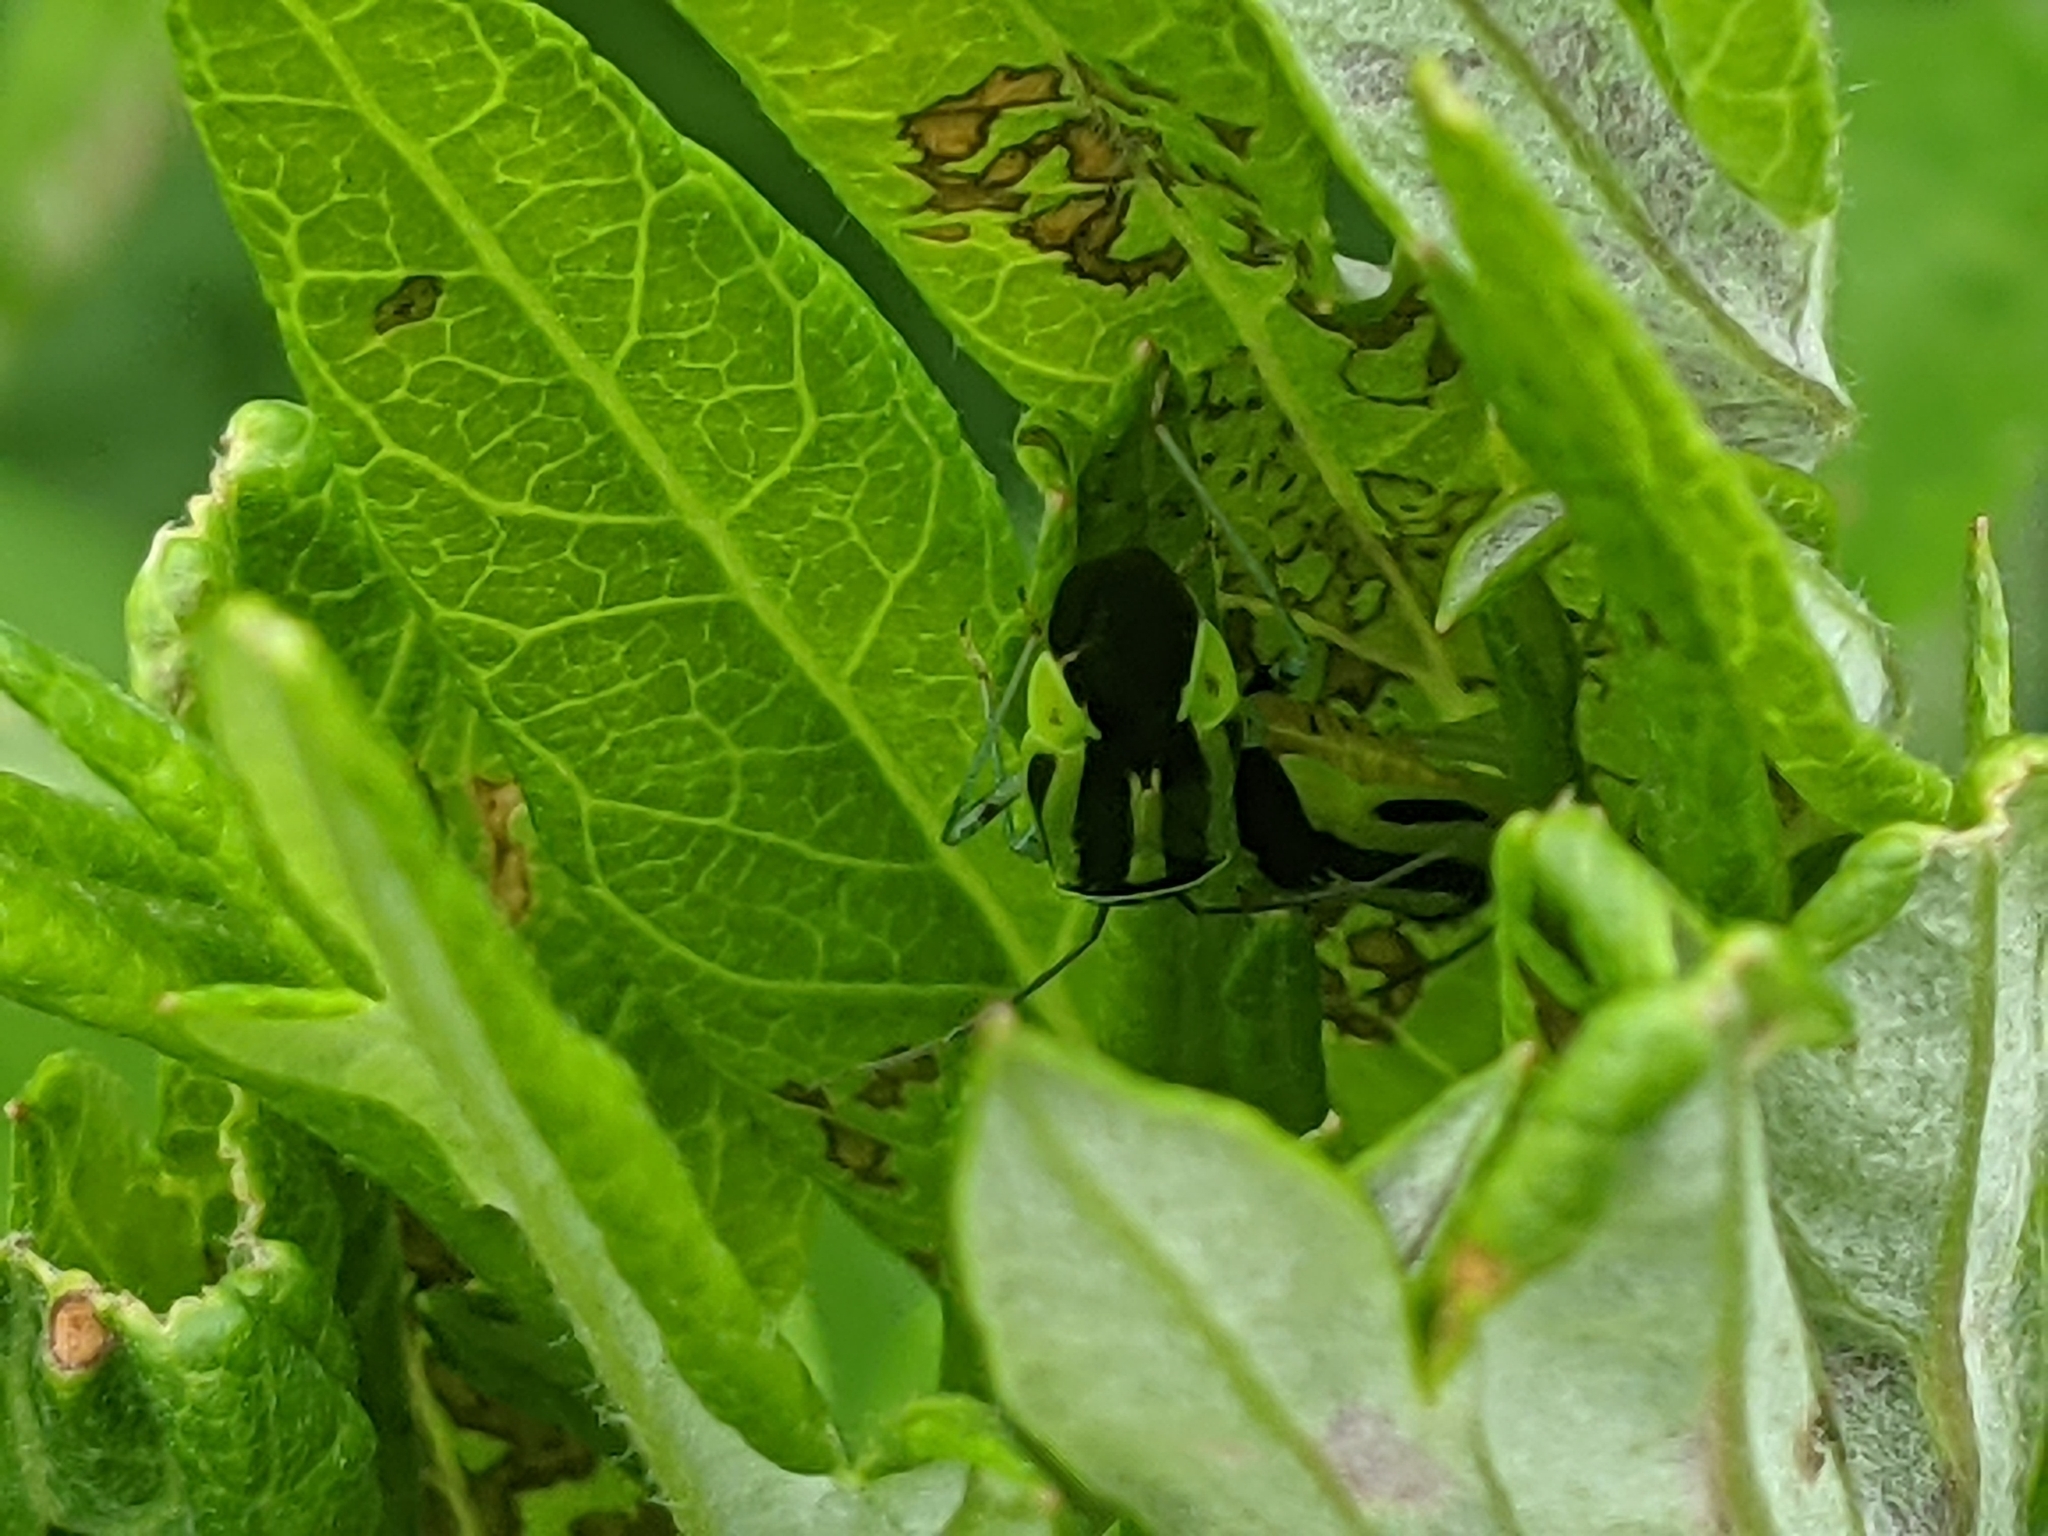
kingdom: Animalia
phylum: Arthropoda
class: Insecta
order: Hemiptera
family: Miridae
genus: Poecilocapsus
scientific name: Poecilocapsus lineatus
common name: Four-lined plant bug
